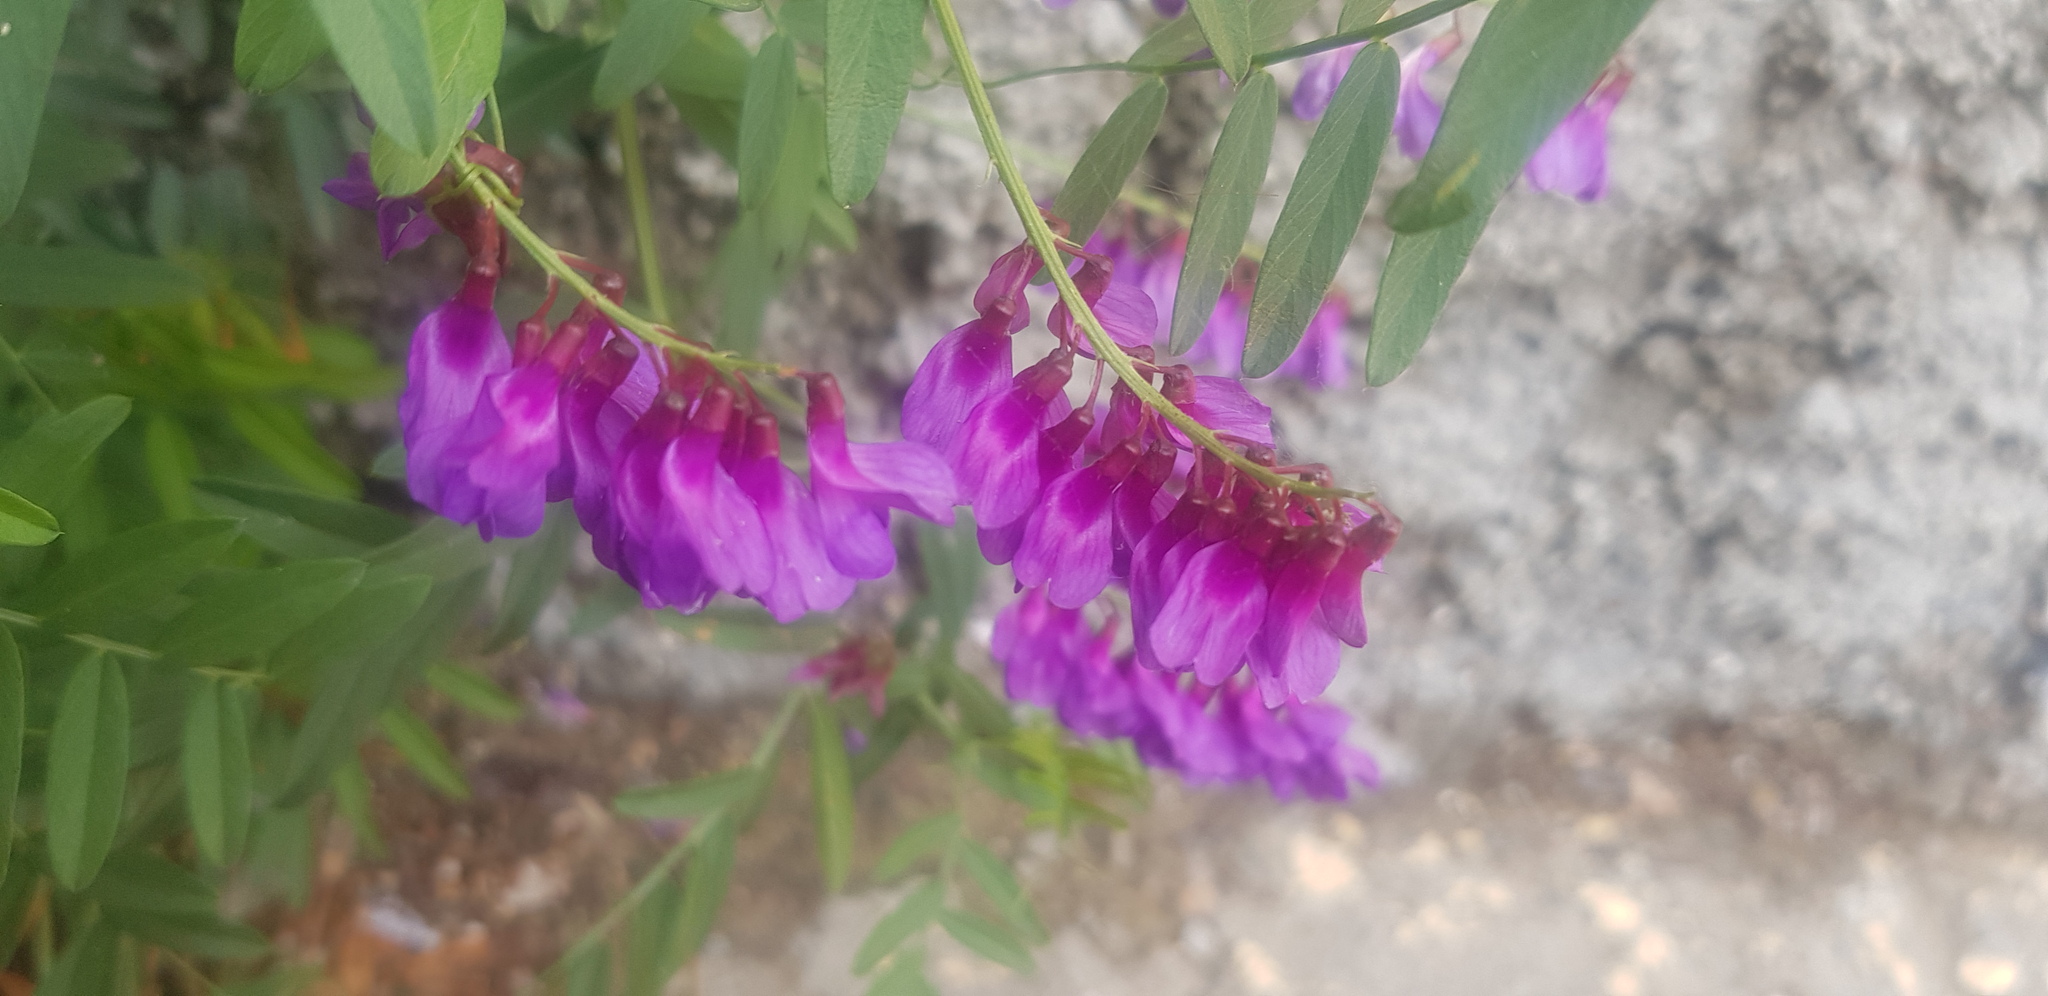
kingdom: Plantae
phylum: Tracheophyta
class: Magnoliopsida
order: Fabales
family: Fabaceae
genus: Vicia
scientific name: Vicia amoena
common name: Cheder ebs
